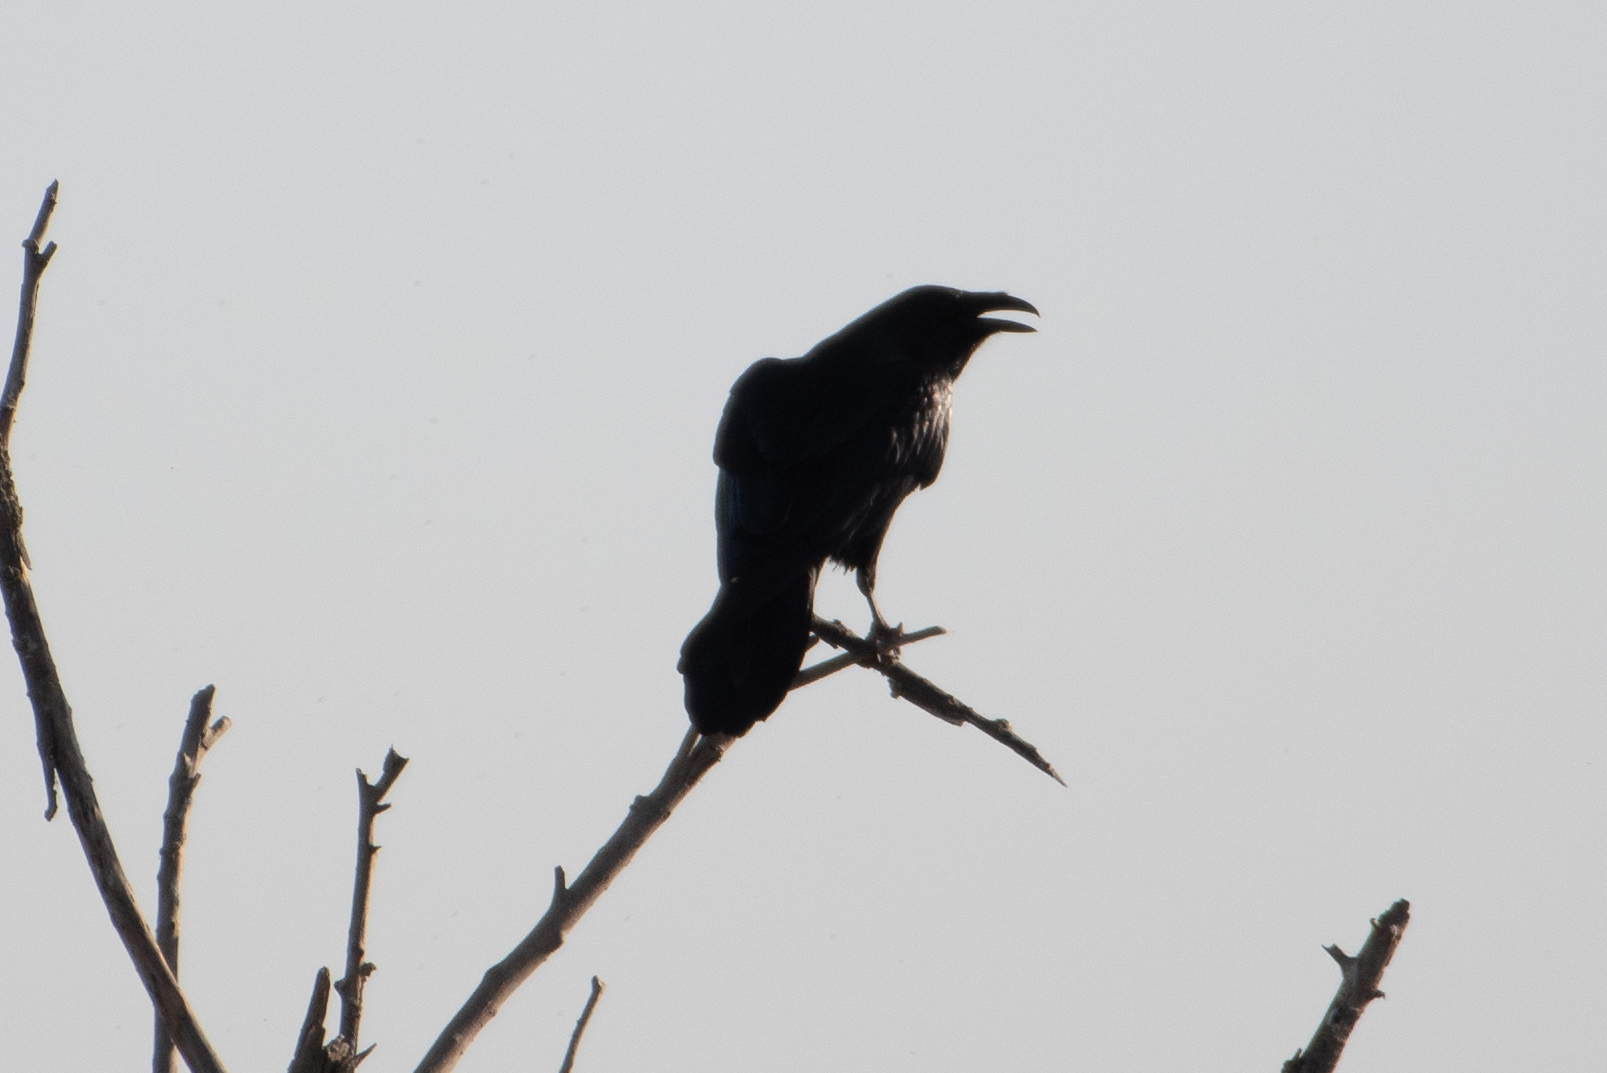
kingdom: Animalia
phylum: Chordata
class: Aves
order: Passeriformes
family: Corvidae
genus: Corvus
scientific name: Corvus corax
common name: Common raven
